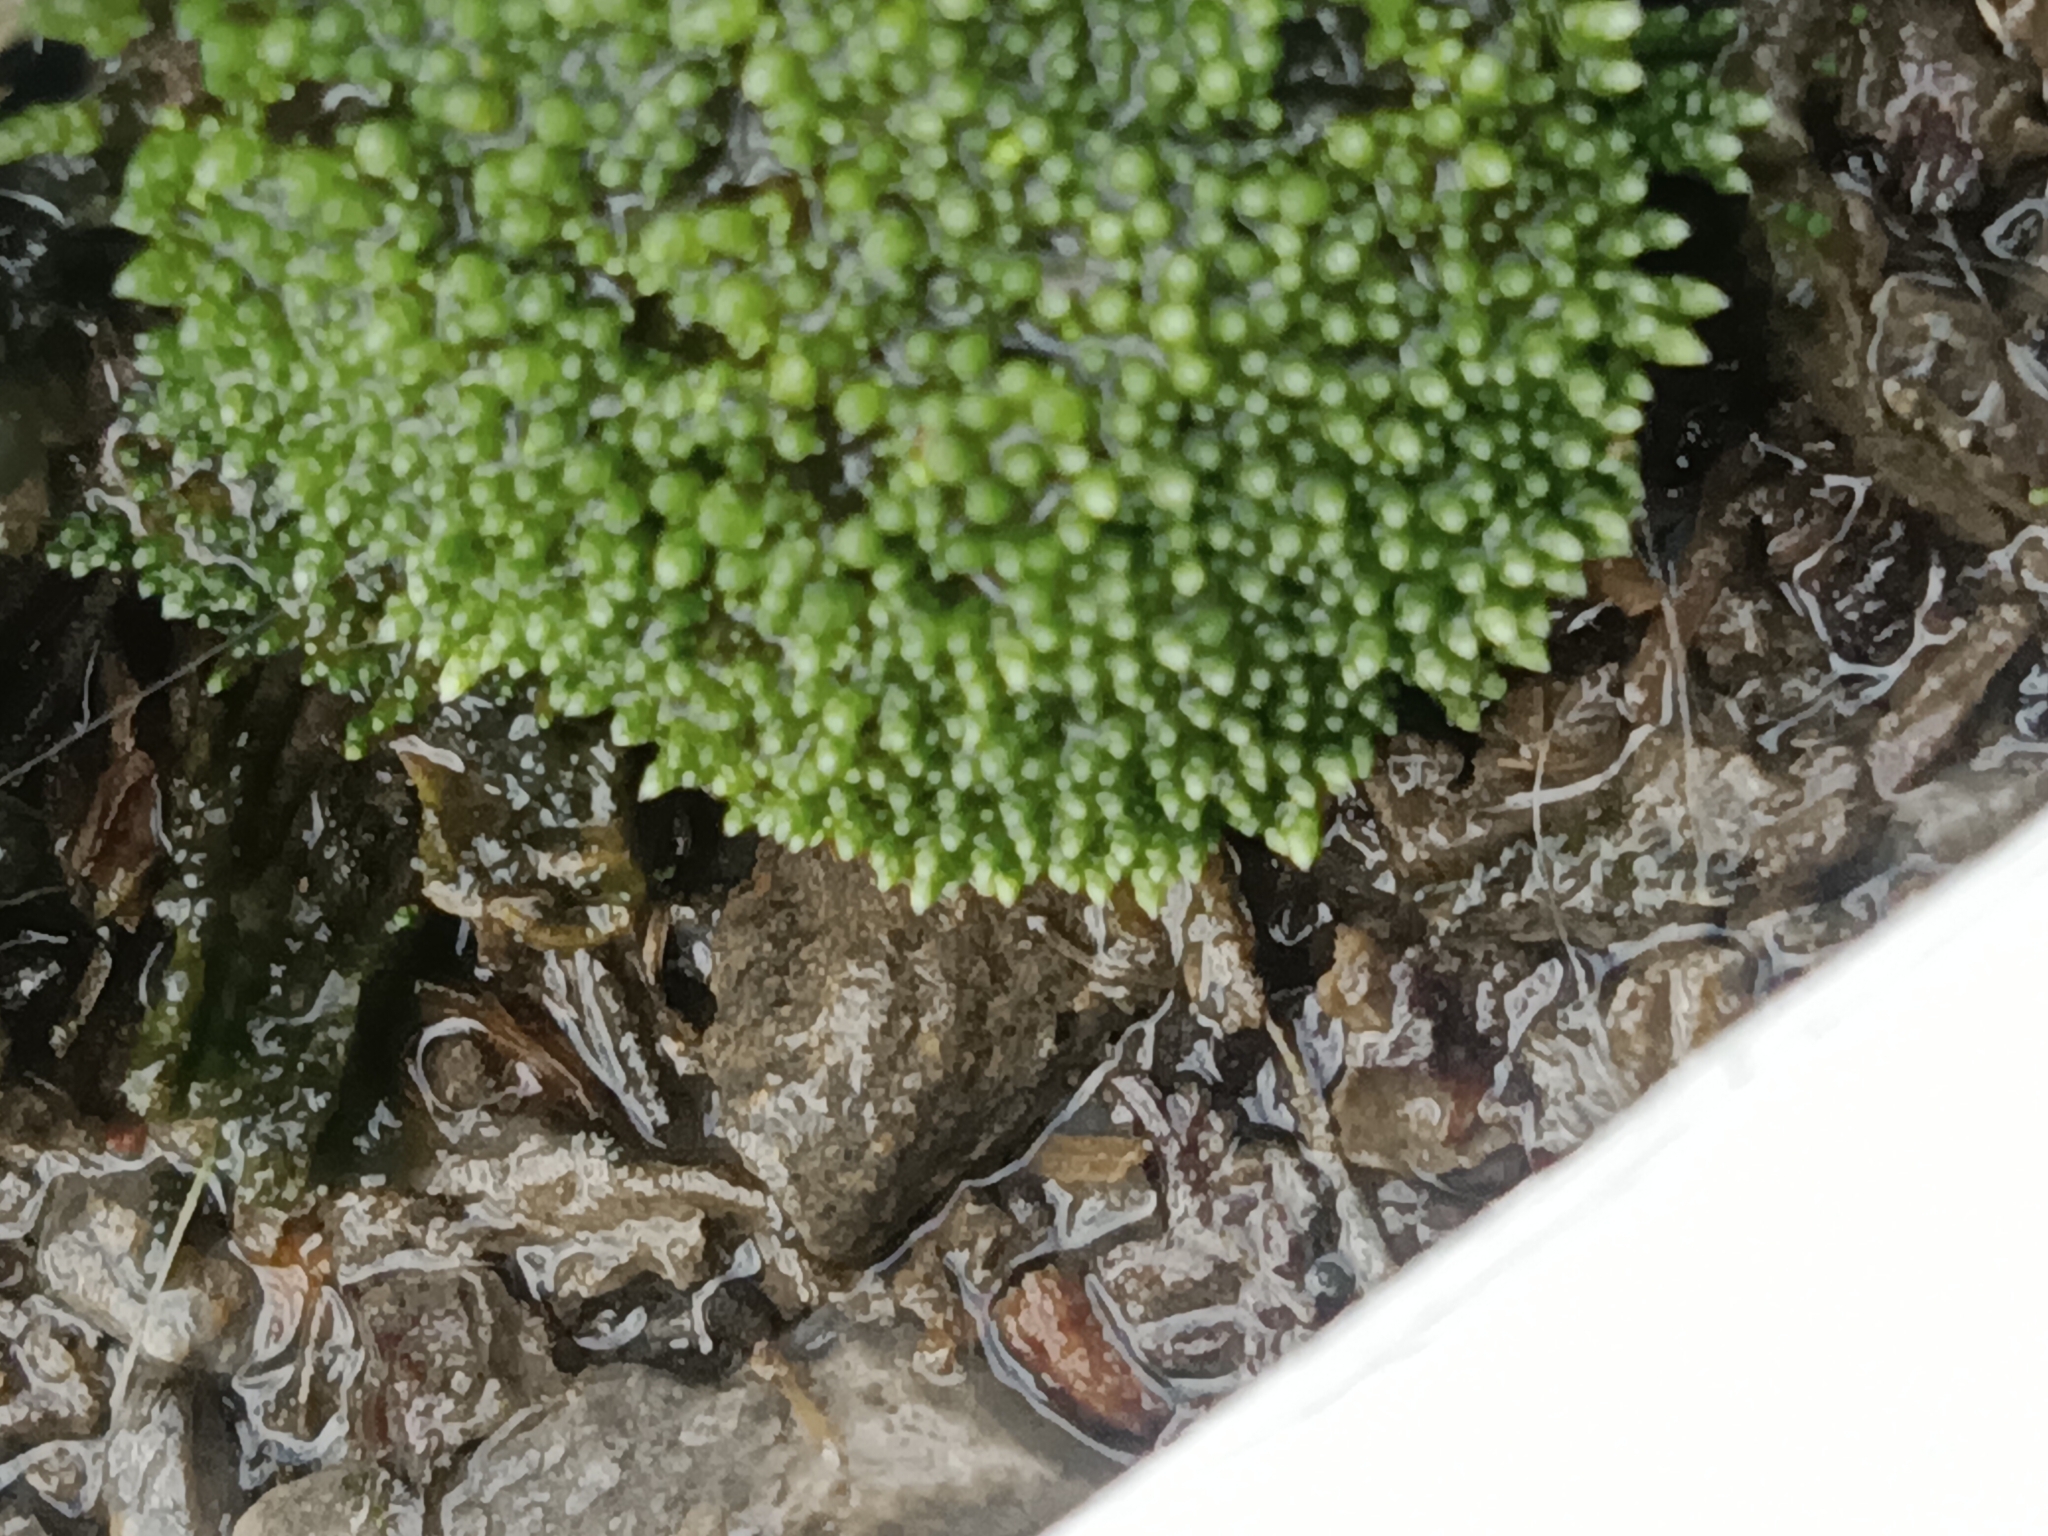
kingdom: Plantae
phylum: Bryophyta
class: Bryopsida
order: Bryales
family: Bryaceae
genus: Bryum
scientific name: Bryum argenteum
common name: Silver-moss
